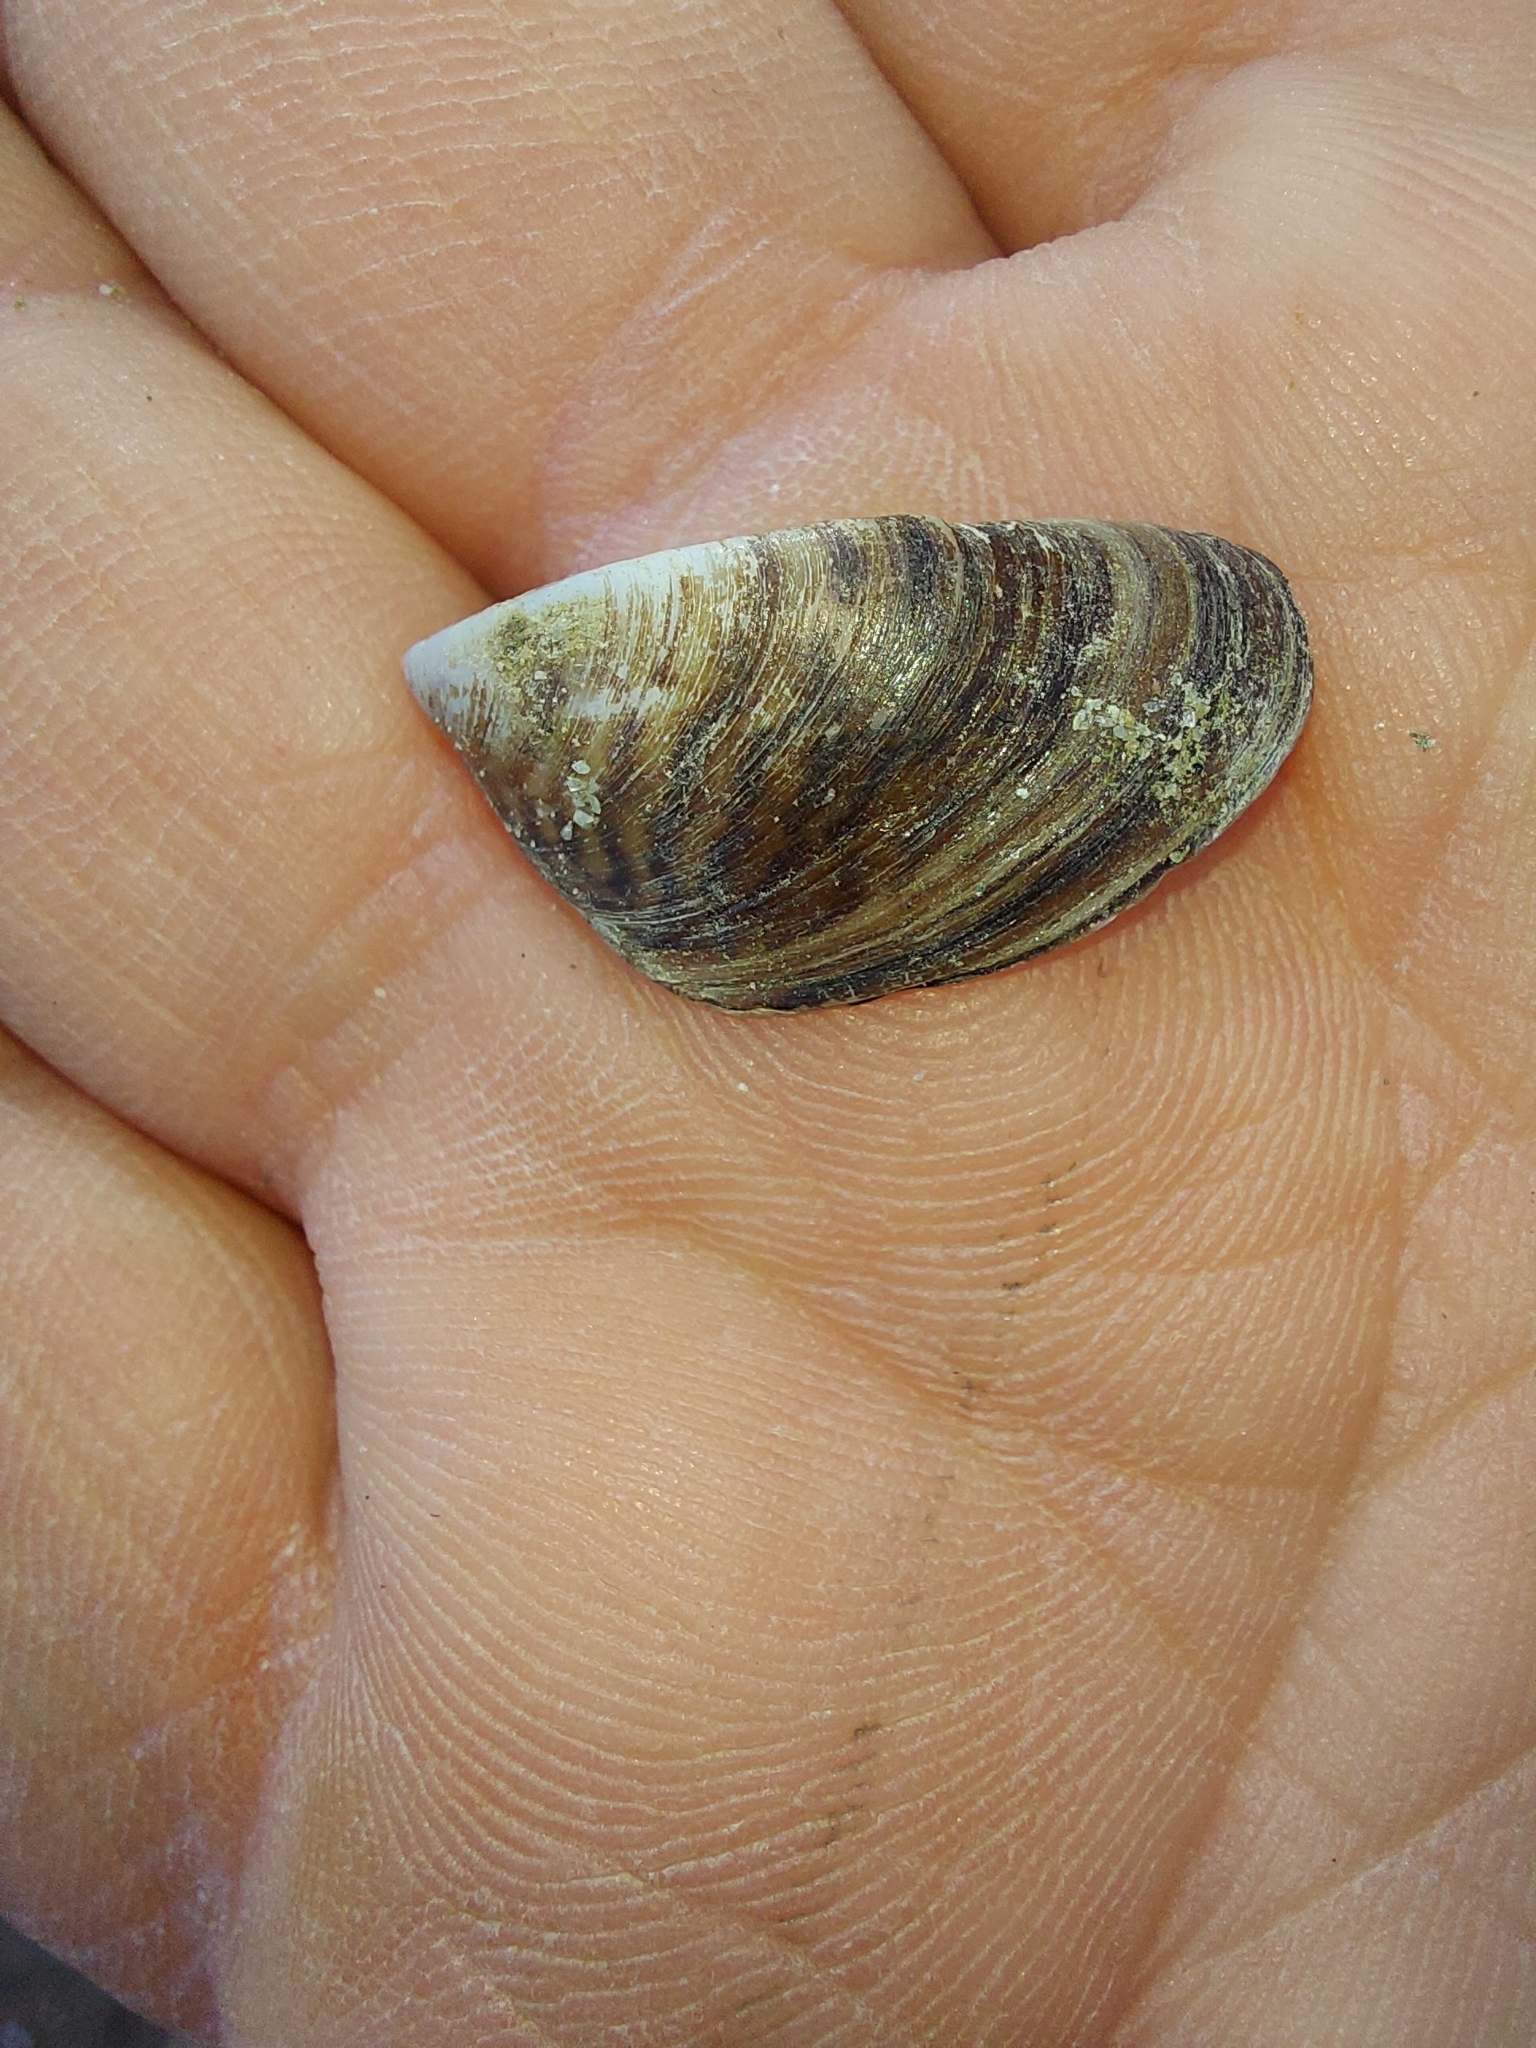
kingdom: Animalia
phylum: Mollusca
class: Bivalvia
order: Myida
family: Dreissenidae
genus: Dreissena
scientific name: Dreissena polymorpha
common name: Zebra mussel
